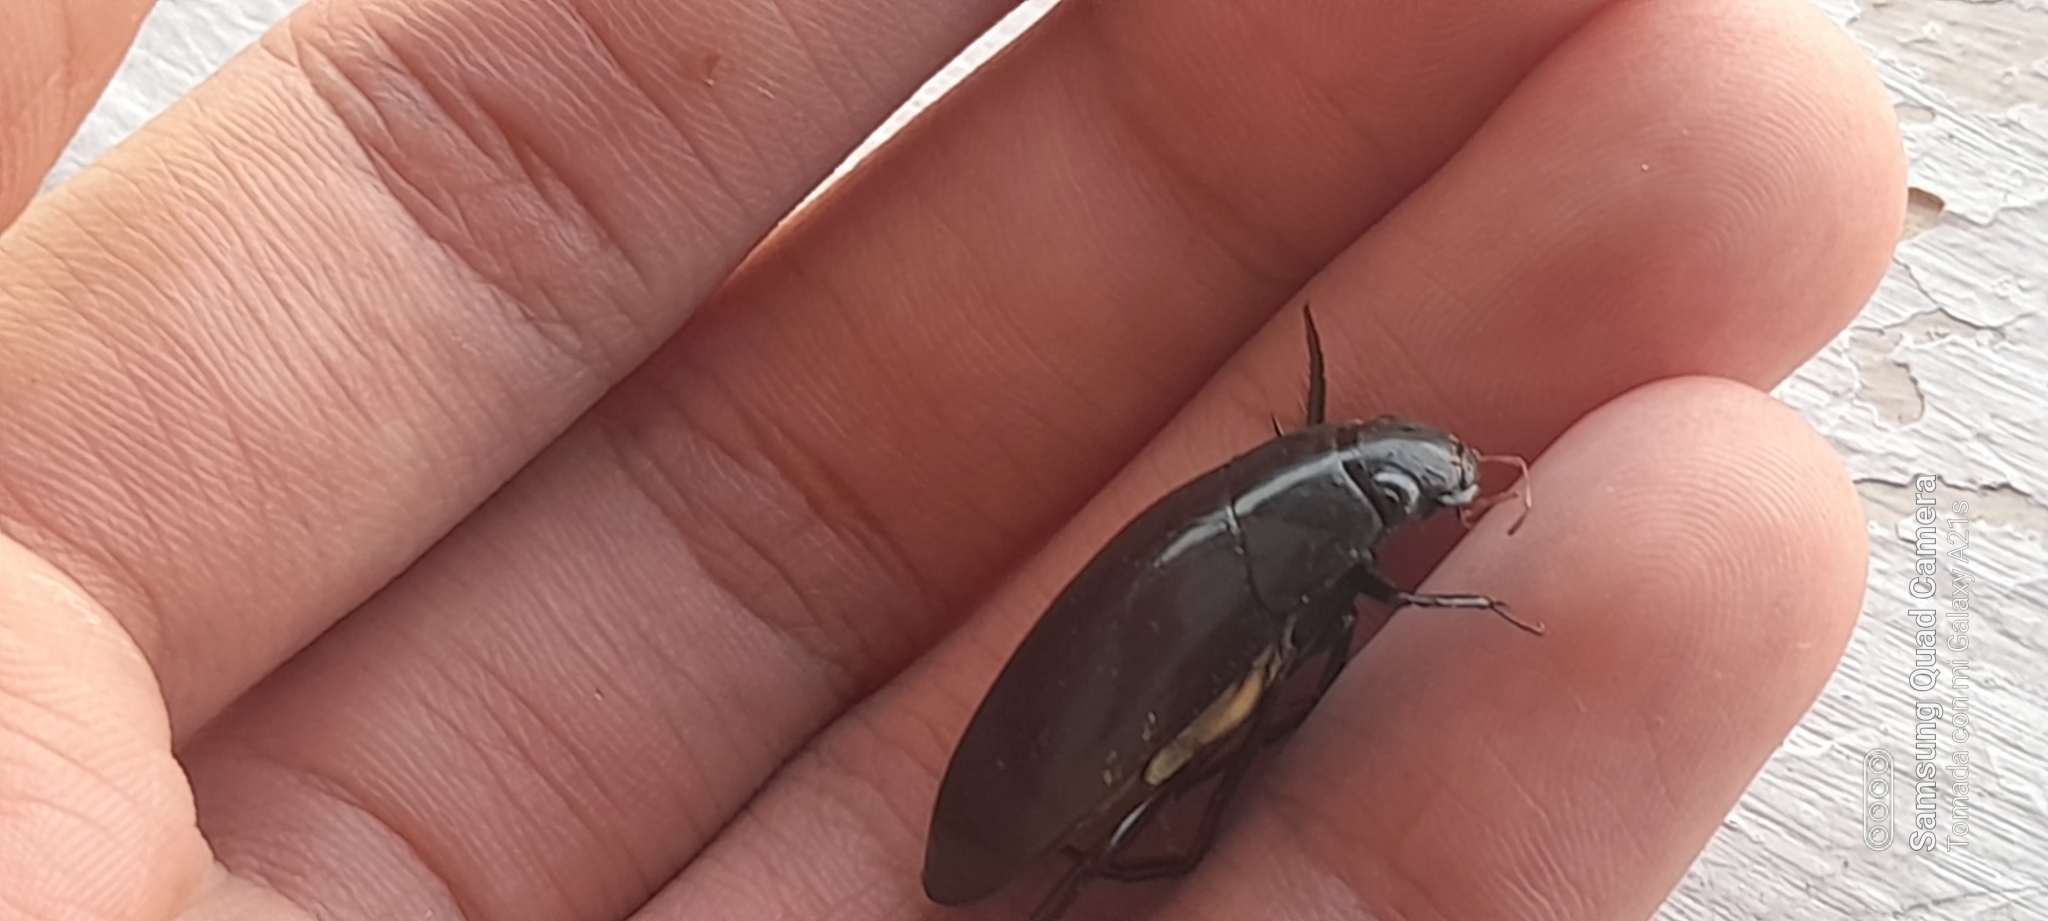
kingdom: Animalia
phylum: Arthropoda
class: Insecta
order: Coleoptera
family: Hydrophilidae
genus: Hydrophilus
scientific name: Hydrophilus
